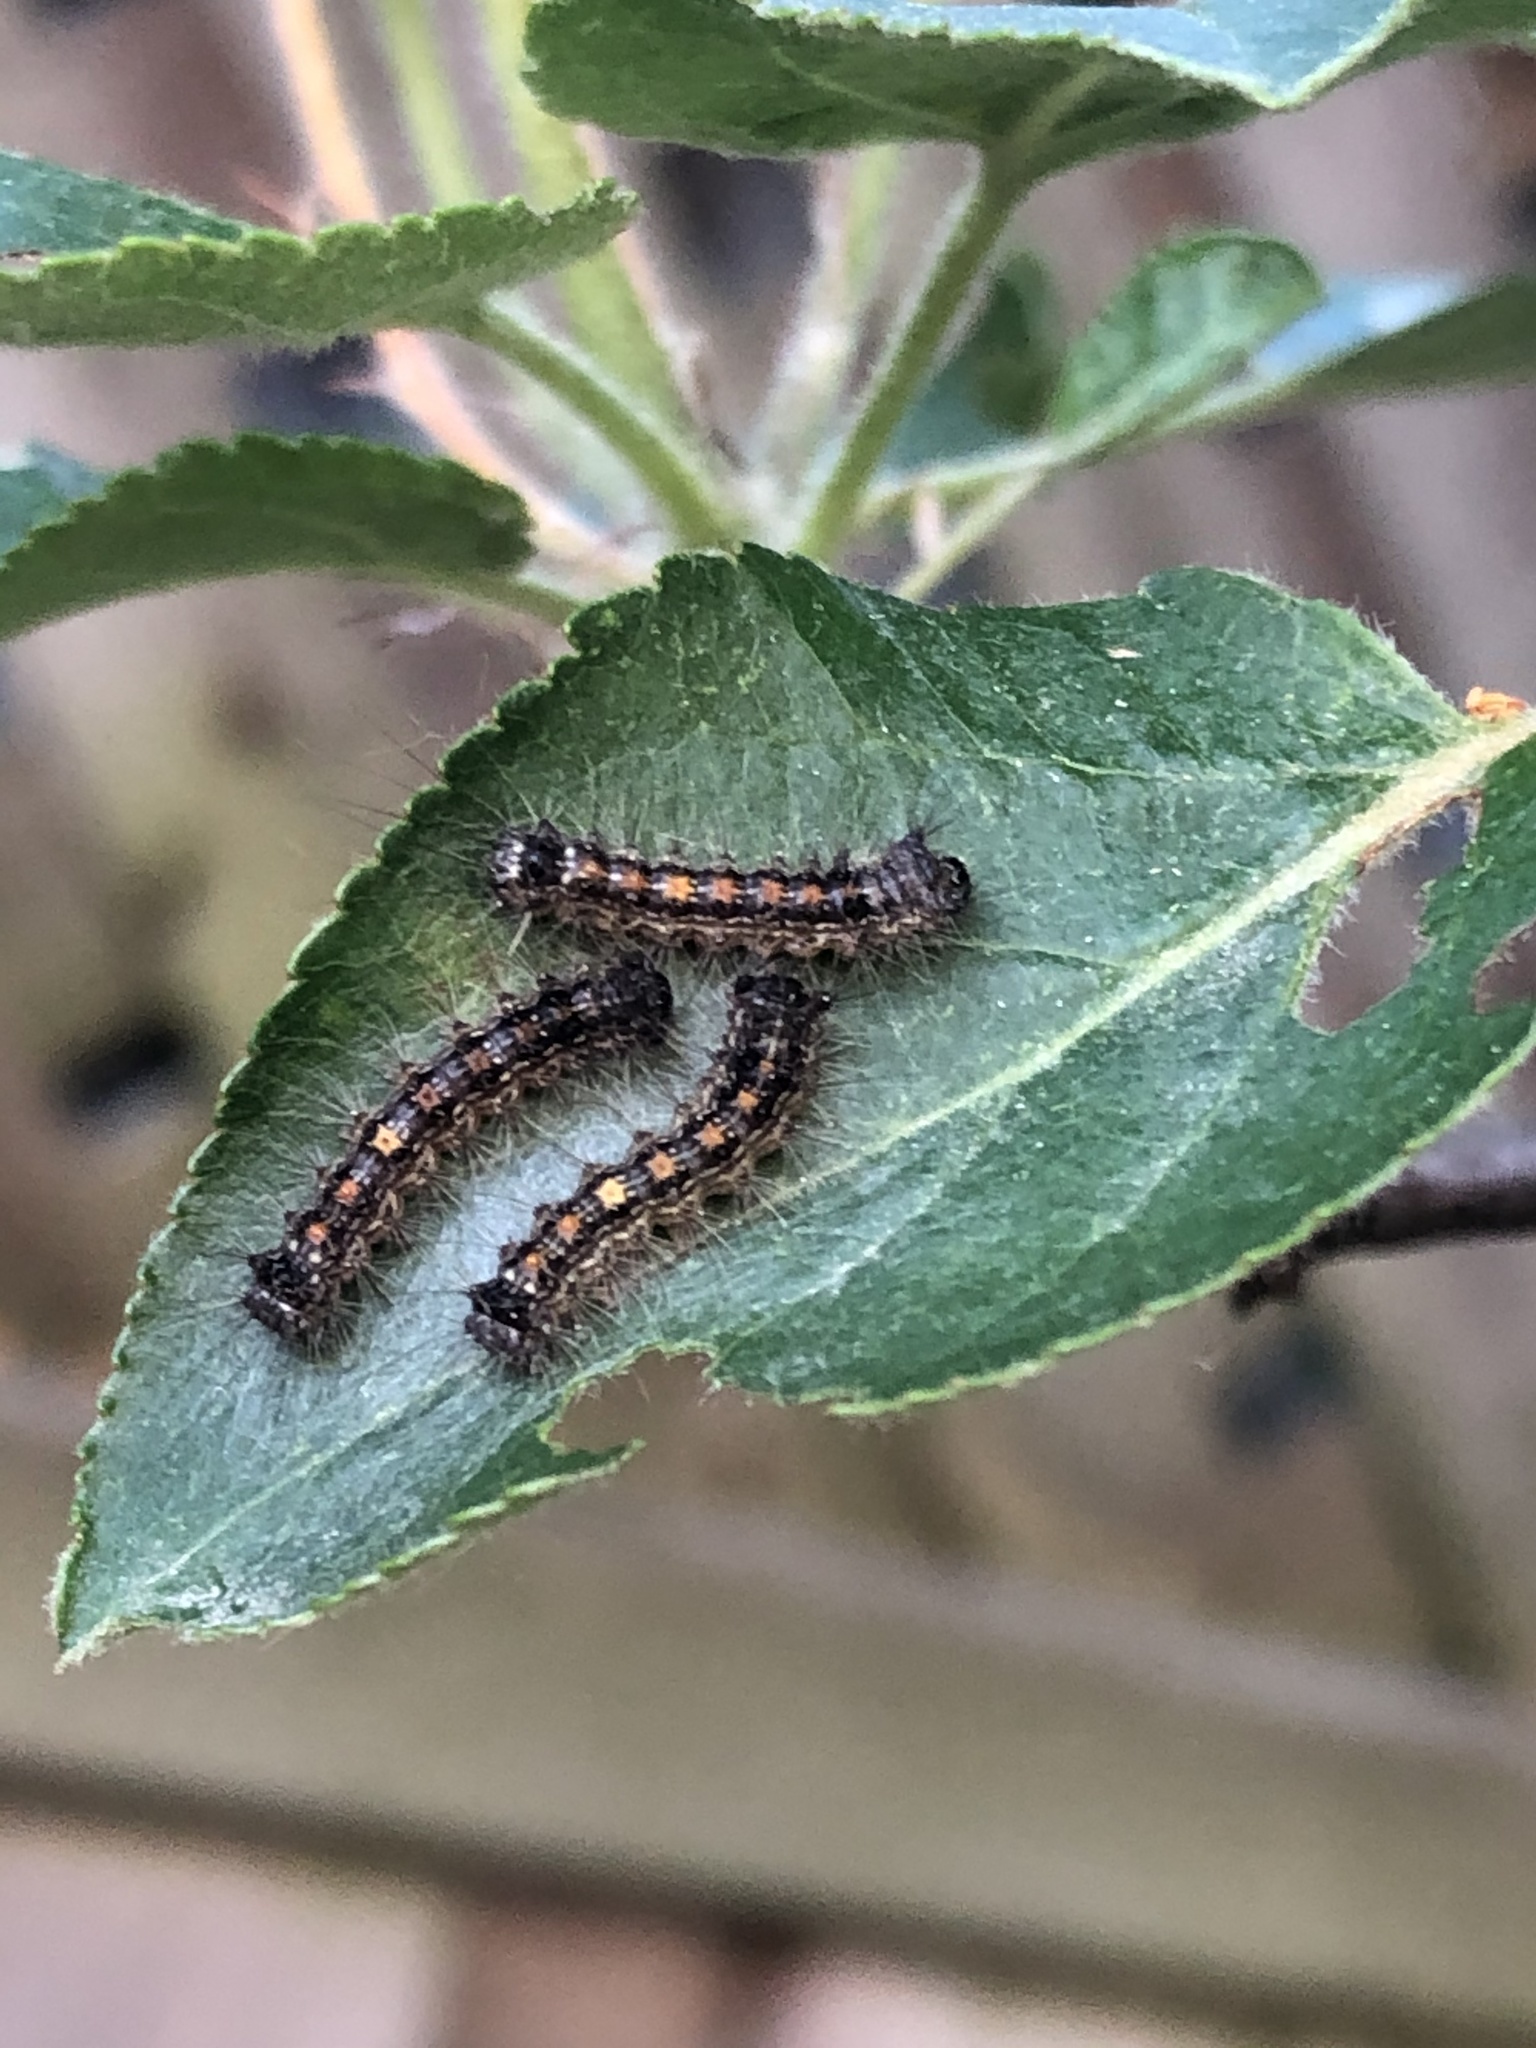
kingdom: Animalia
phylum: Arthropoda
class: Insecta
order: Lepidoptera
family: Erebidae
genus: Lymantria
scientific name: Lymantria dispar
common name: Gypsy moth
